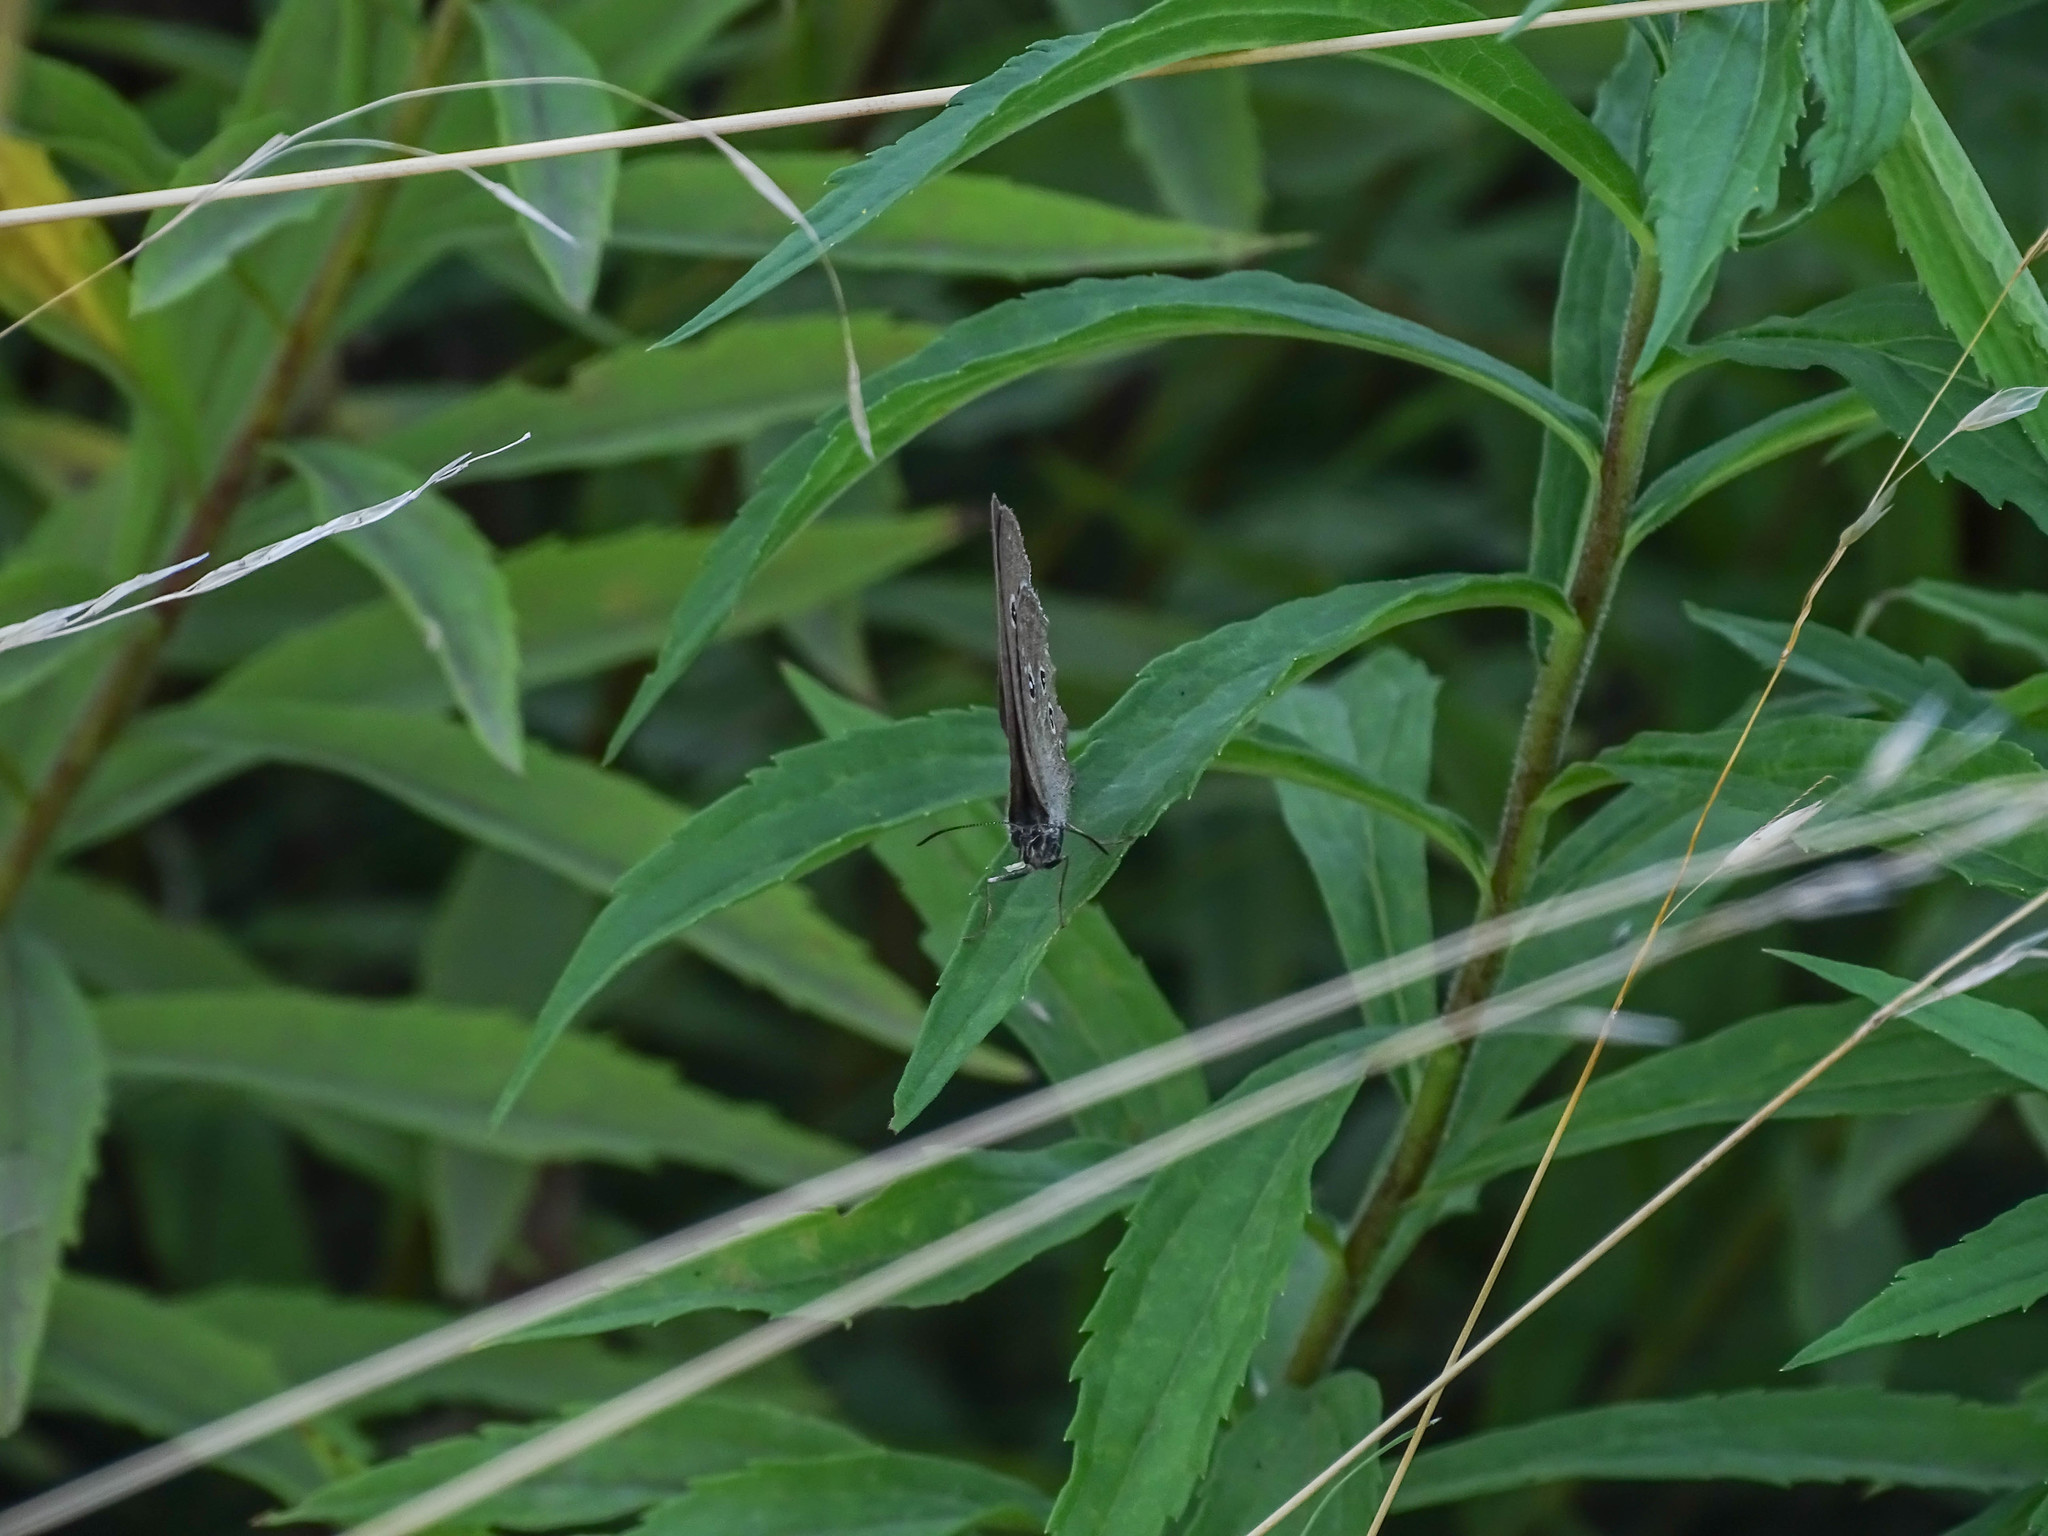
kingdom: Animalia
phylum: Arthropoda
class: Insecta
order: Lepidoptera
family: Nymphalidae
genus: Aphantopus
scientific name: Aphantopus hyperantus
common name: Ringlet
